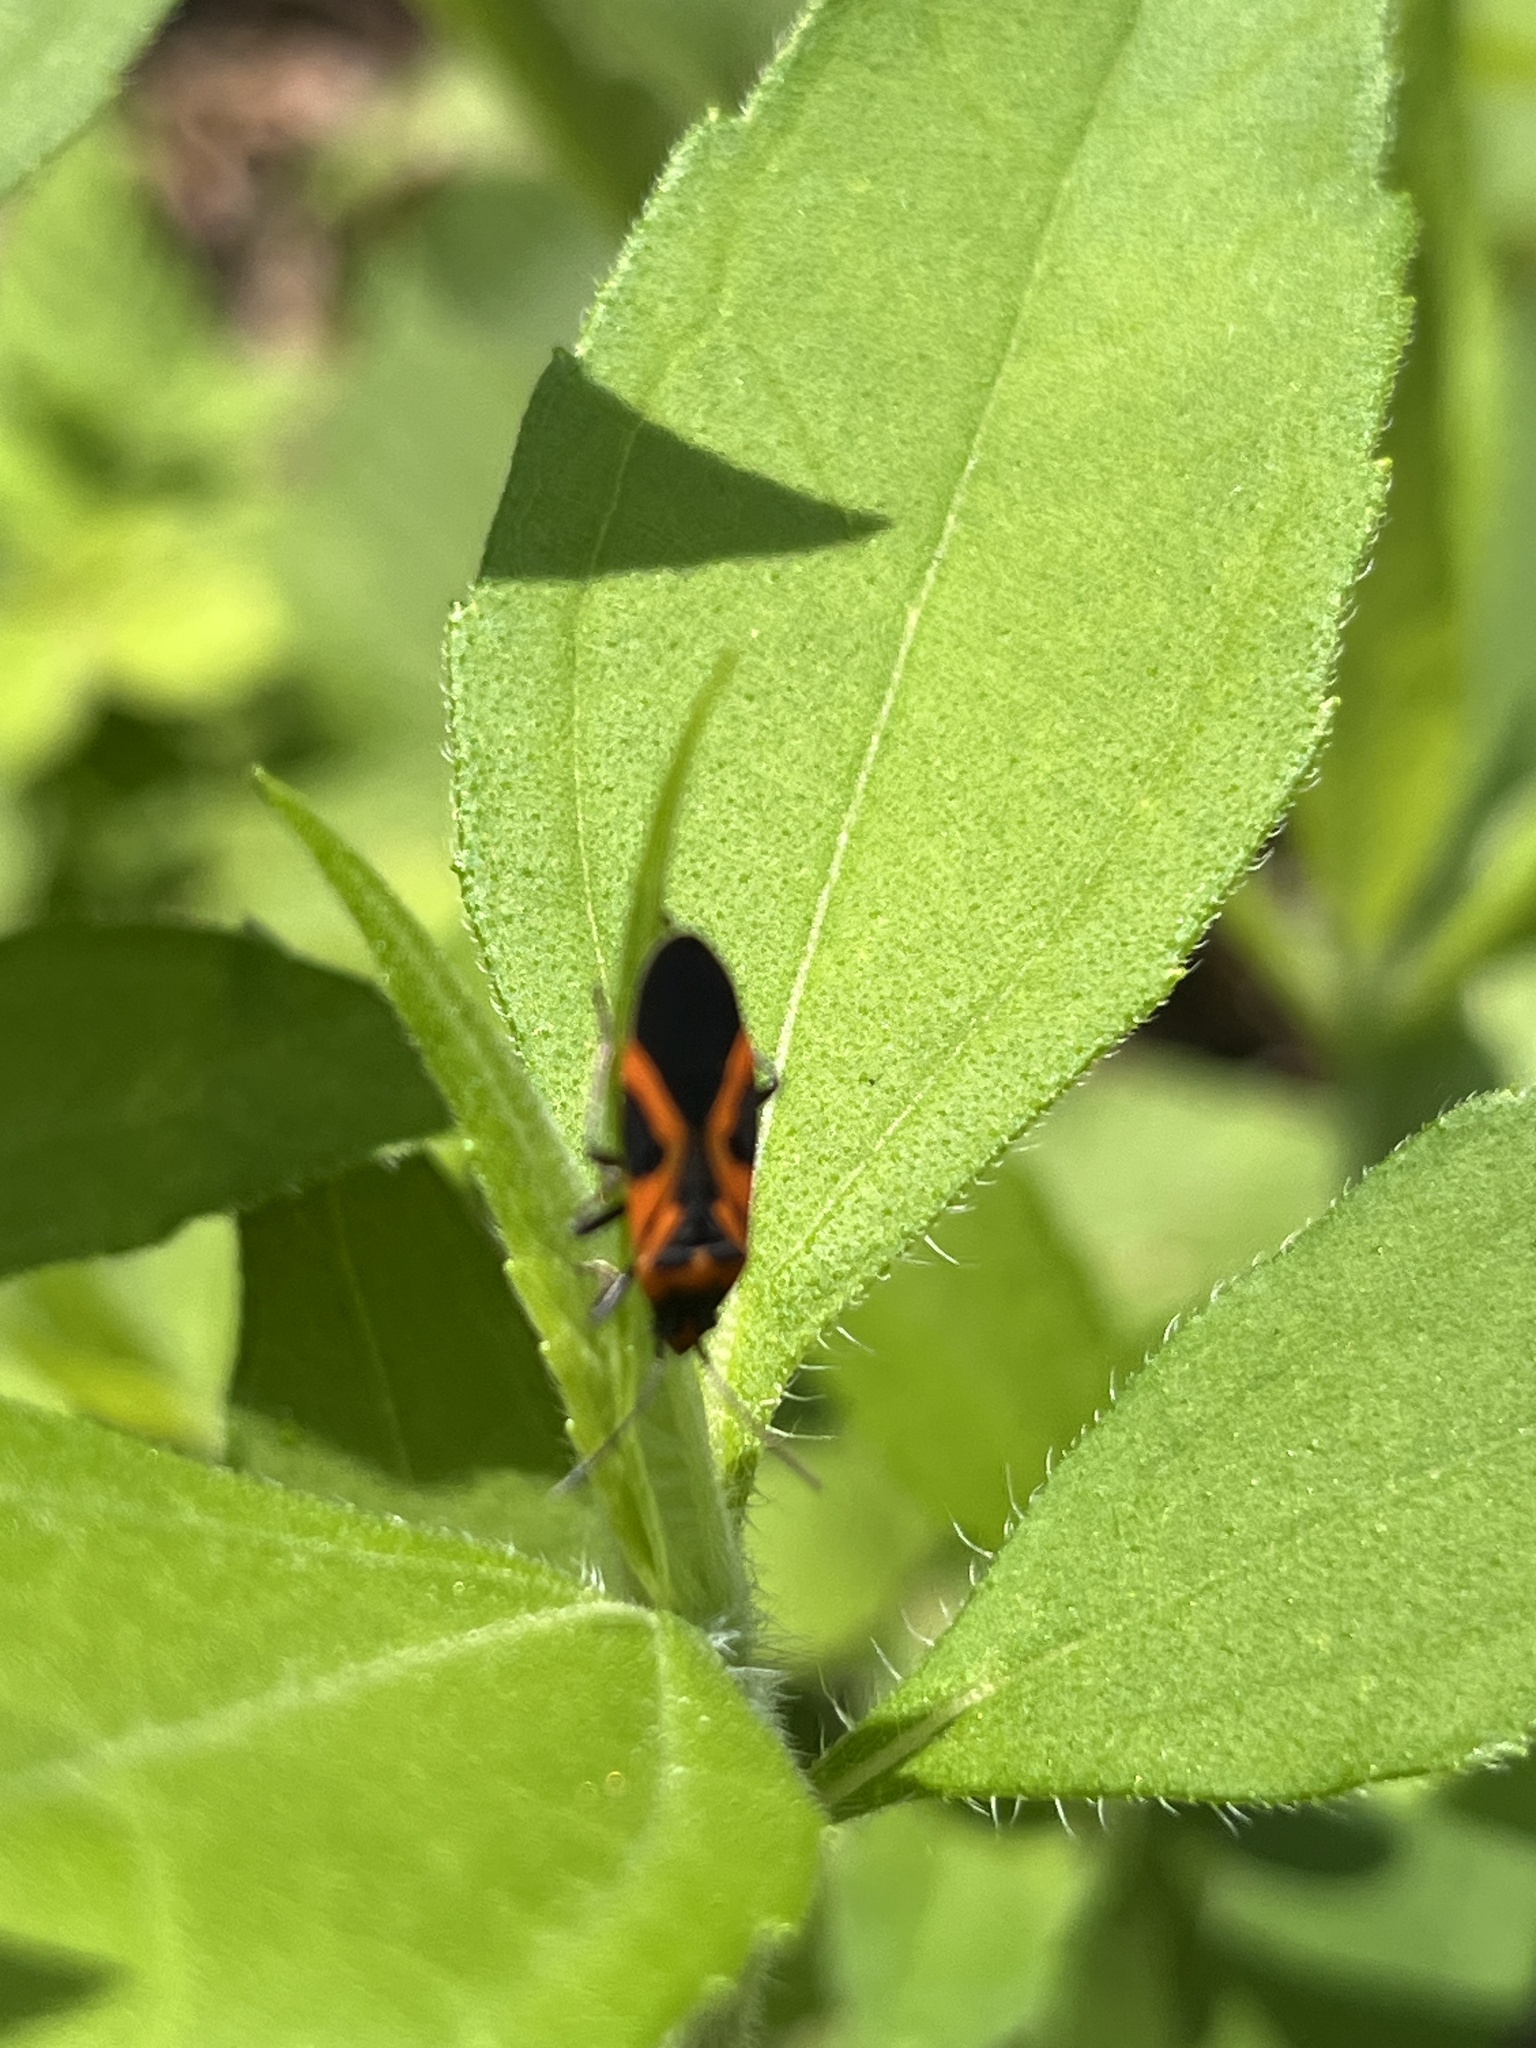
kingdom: Animalia
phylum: Arthropoda
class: Insecta
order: Hemiptera
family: Lygaeidae
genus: Lygaeus
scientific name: Lygaeus turcicus
